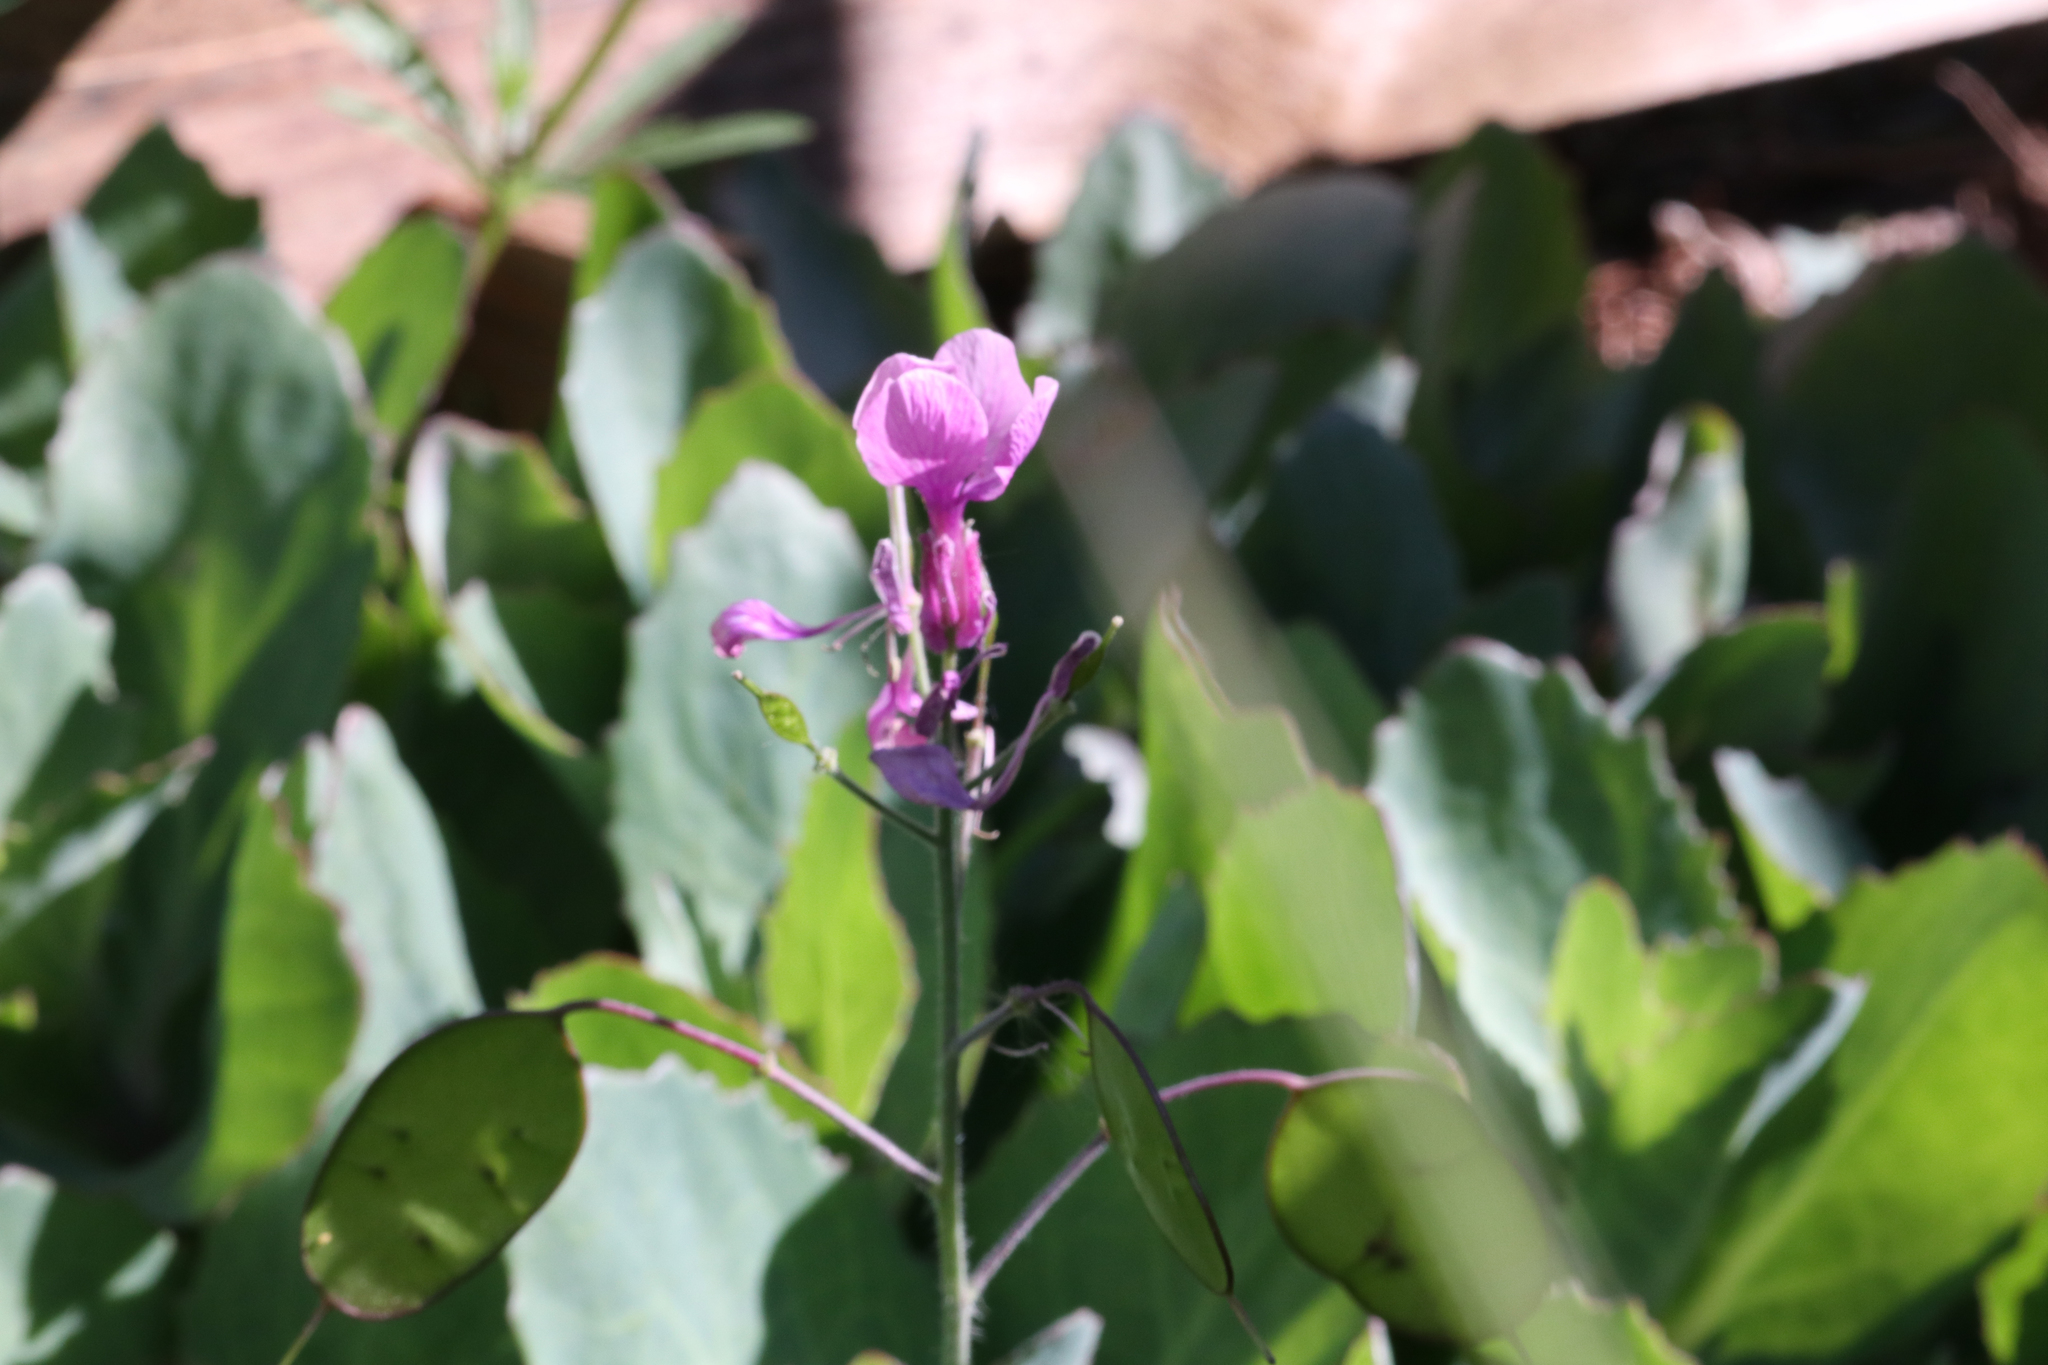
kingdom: Plantae
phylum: Tracheophyta
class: Magnoliopsida
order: Brassicales
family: Brassicaceae
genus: Lunaria
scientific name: Lunaria annua
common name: Honesty
